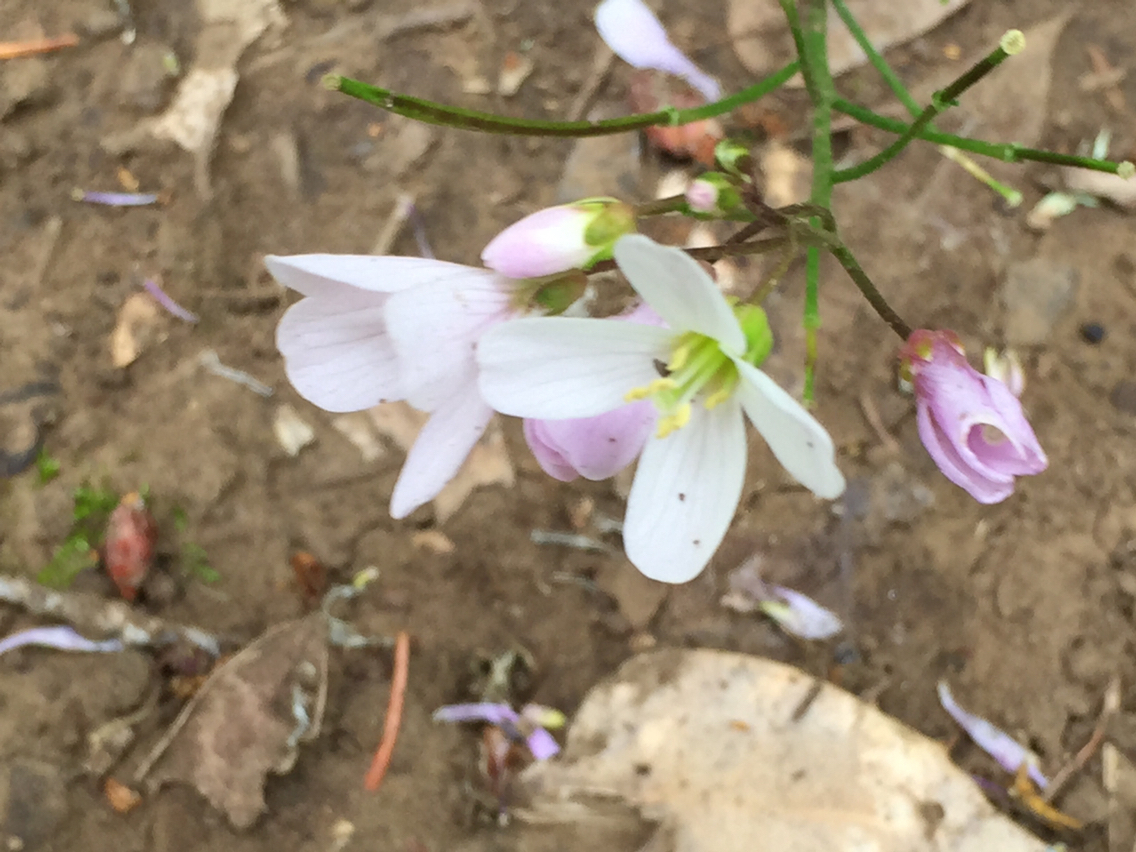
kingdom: Plantae
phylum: Tracheophyta
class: Magnoliopsida
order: Brassicales
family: Brassicaceae
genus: Cardamine
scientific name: Cardamine californica
